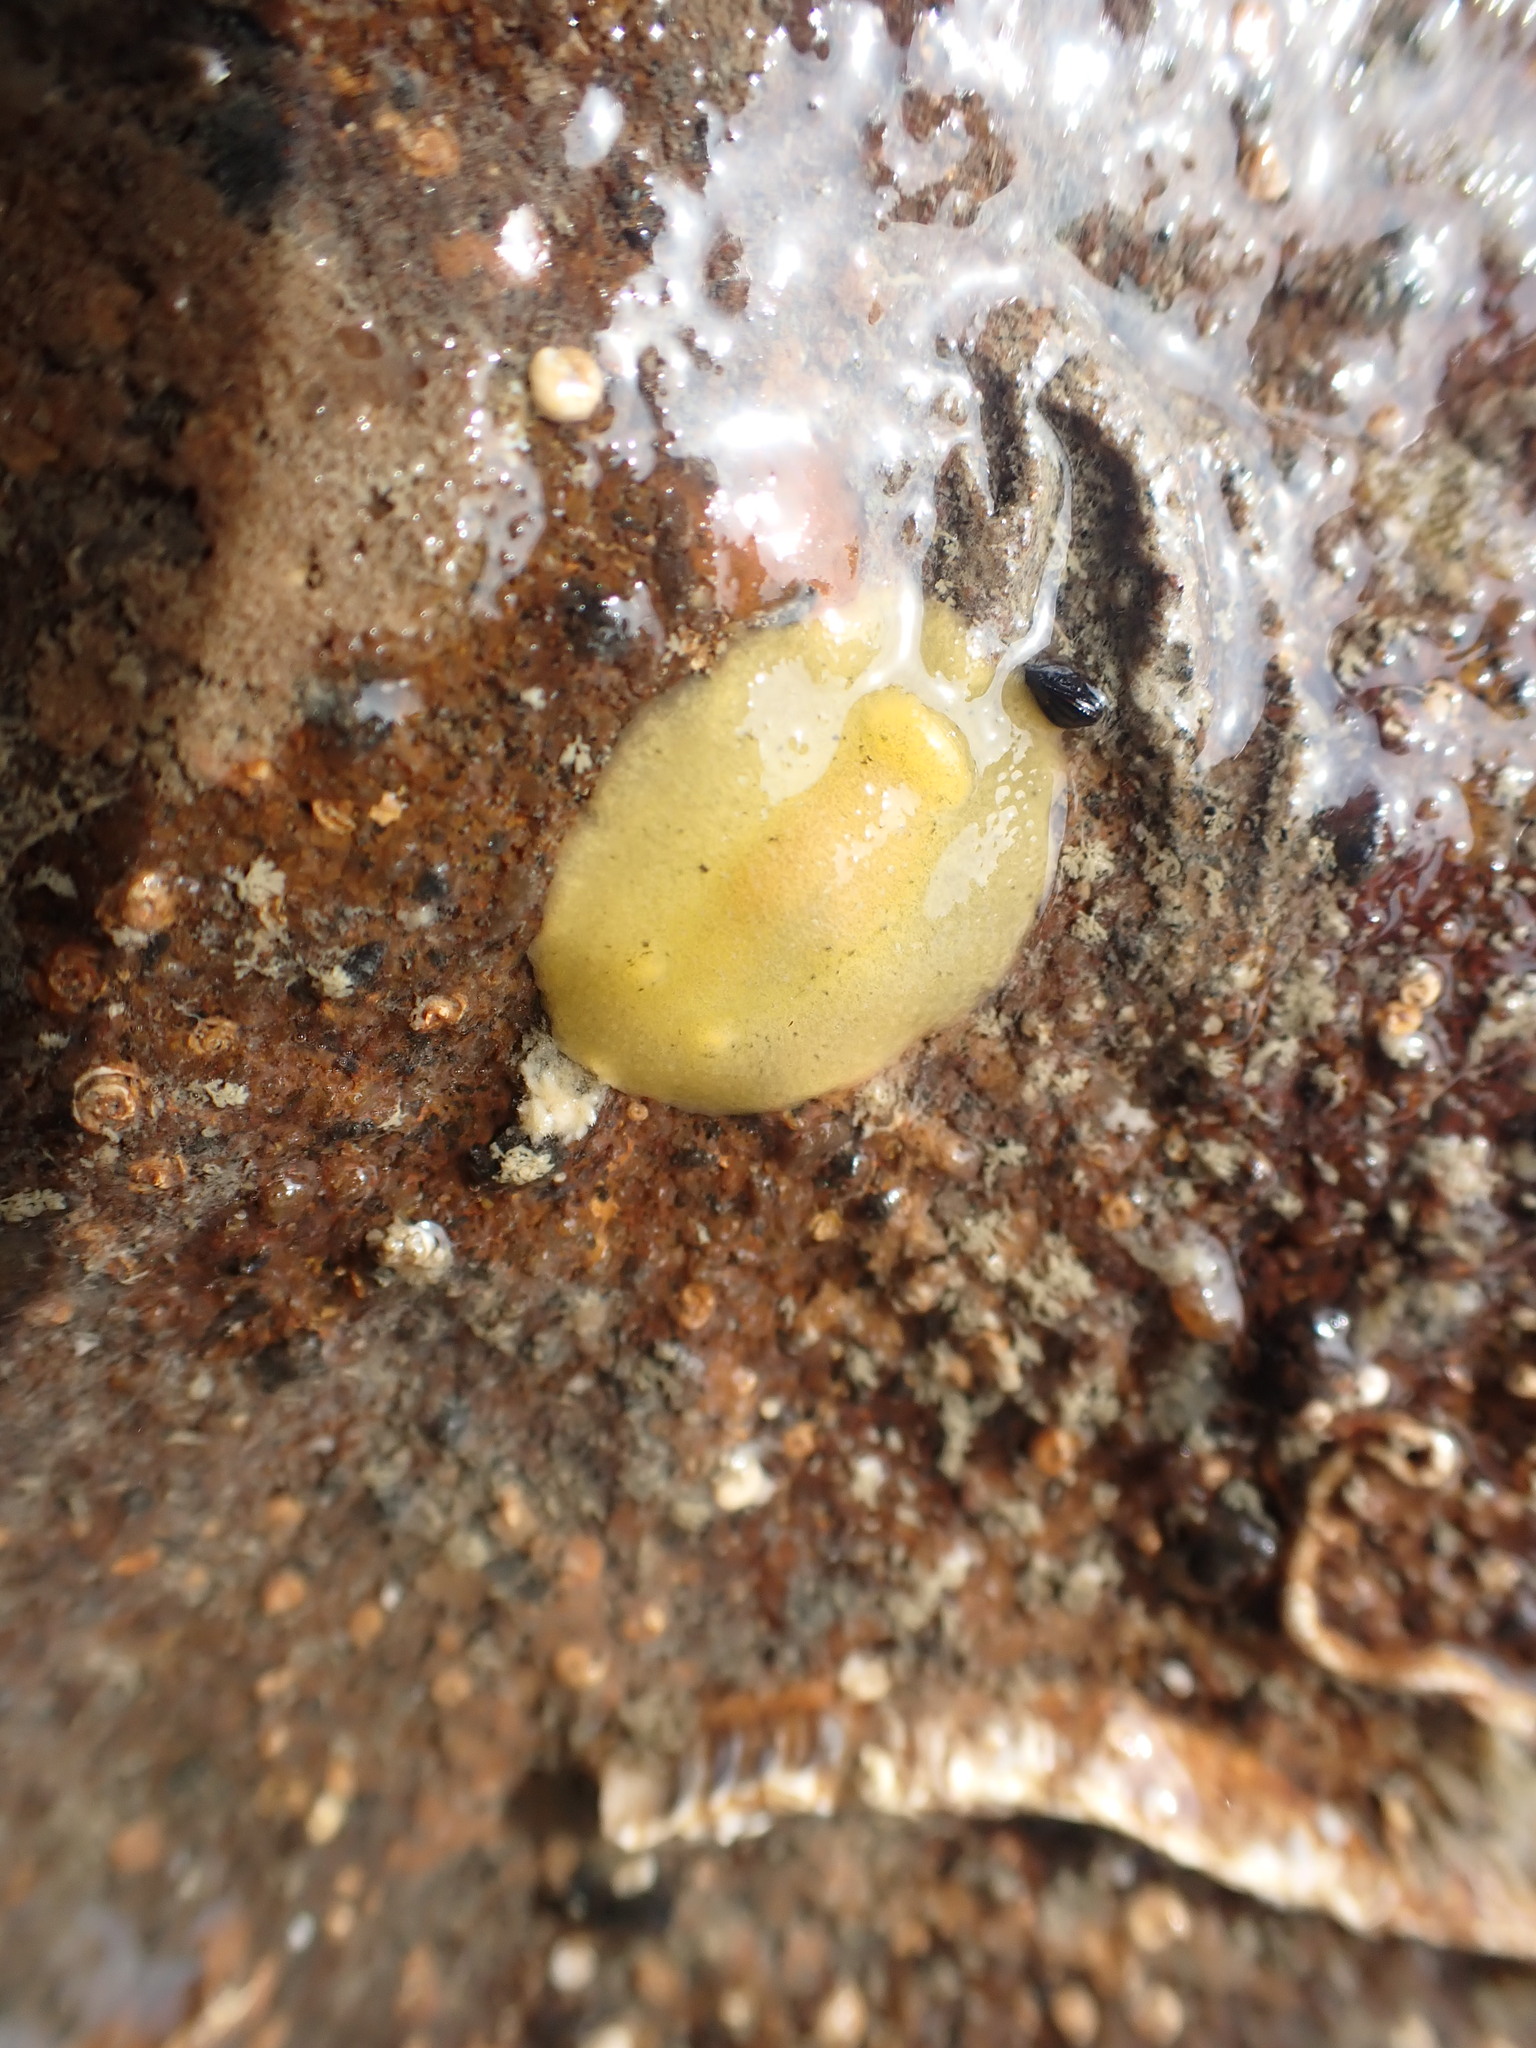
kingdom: Animalia
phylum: Mollusca
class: Gastropoda
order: Nudibranchia
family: Dorididae
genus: Doriopsis
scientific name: Doriopsis granulosa
